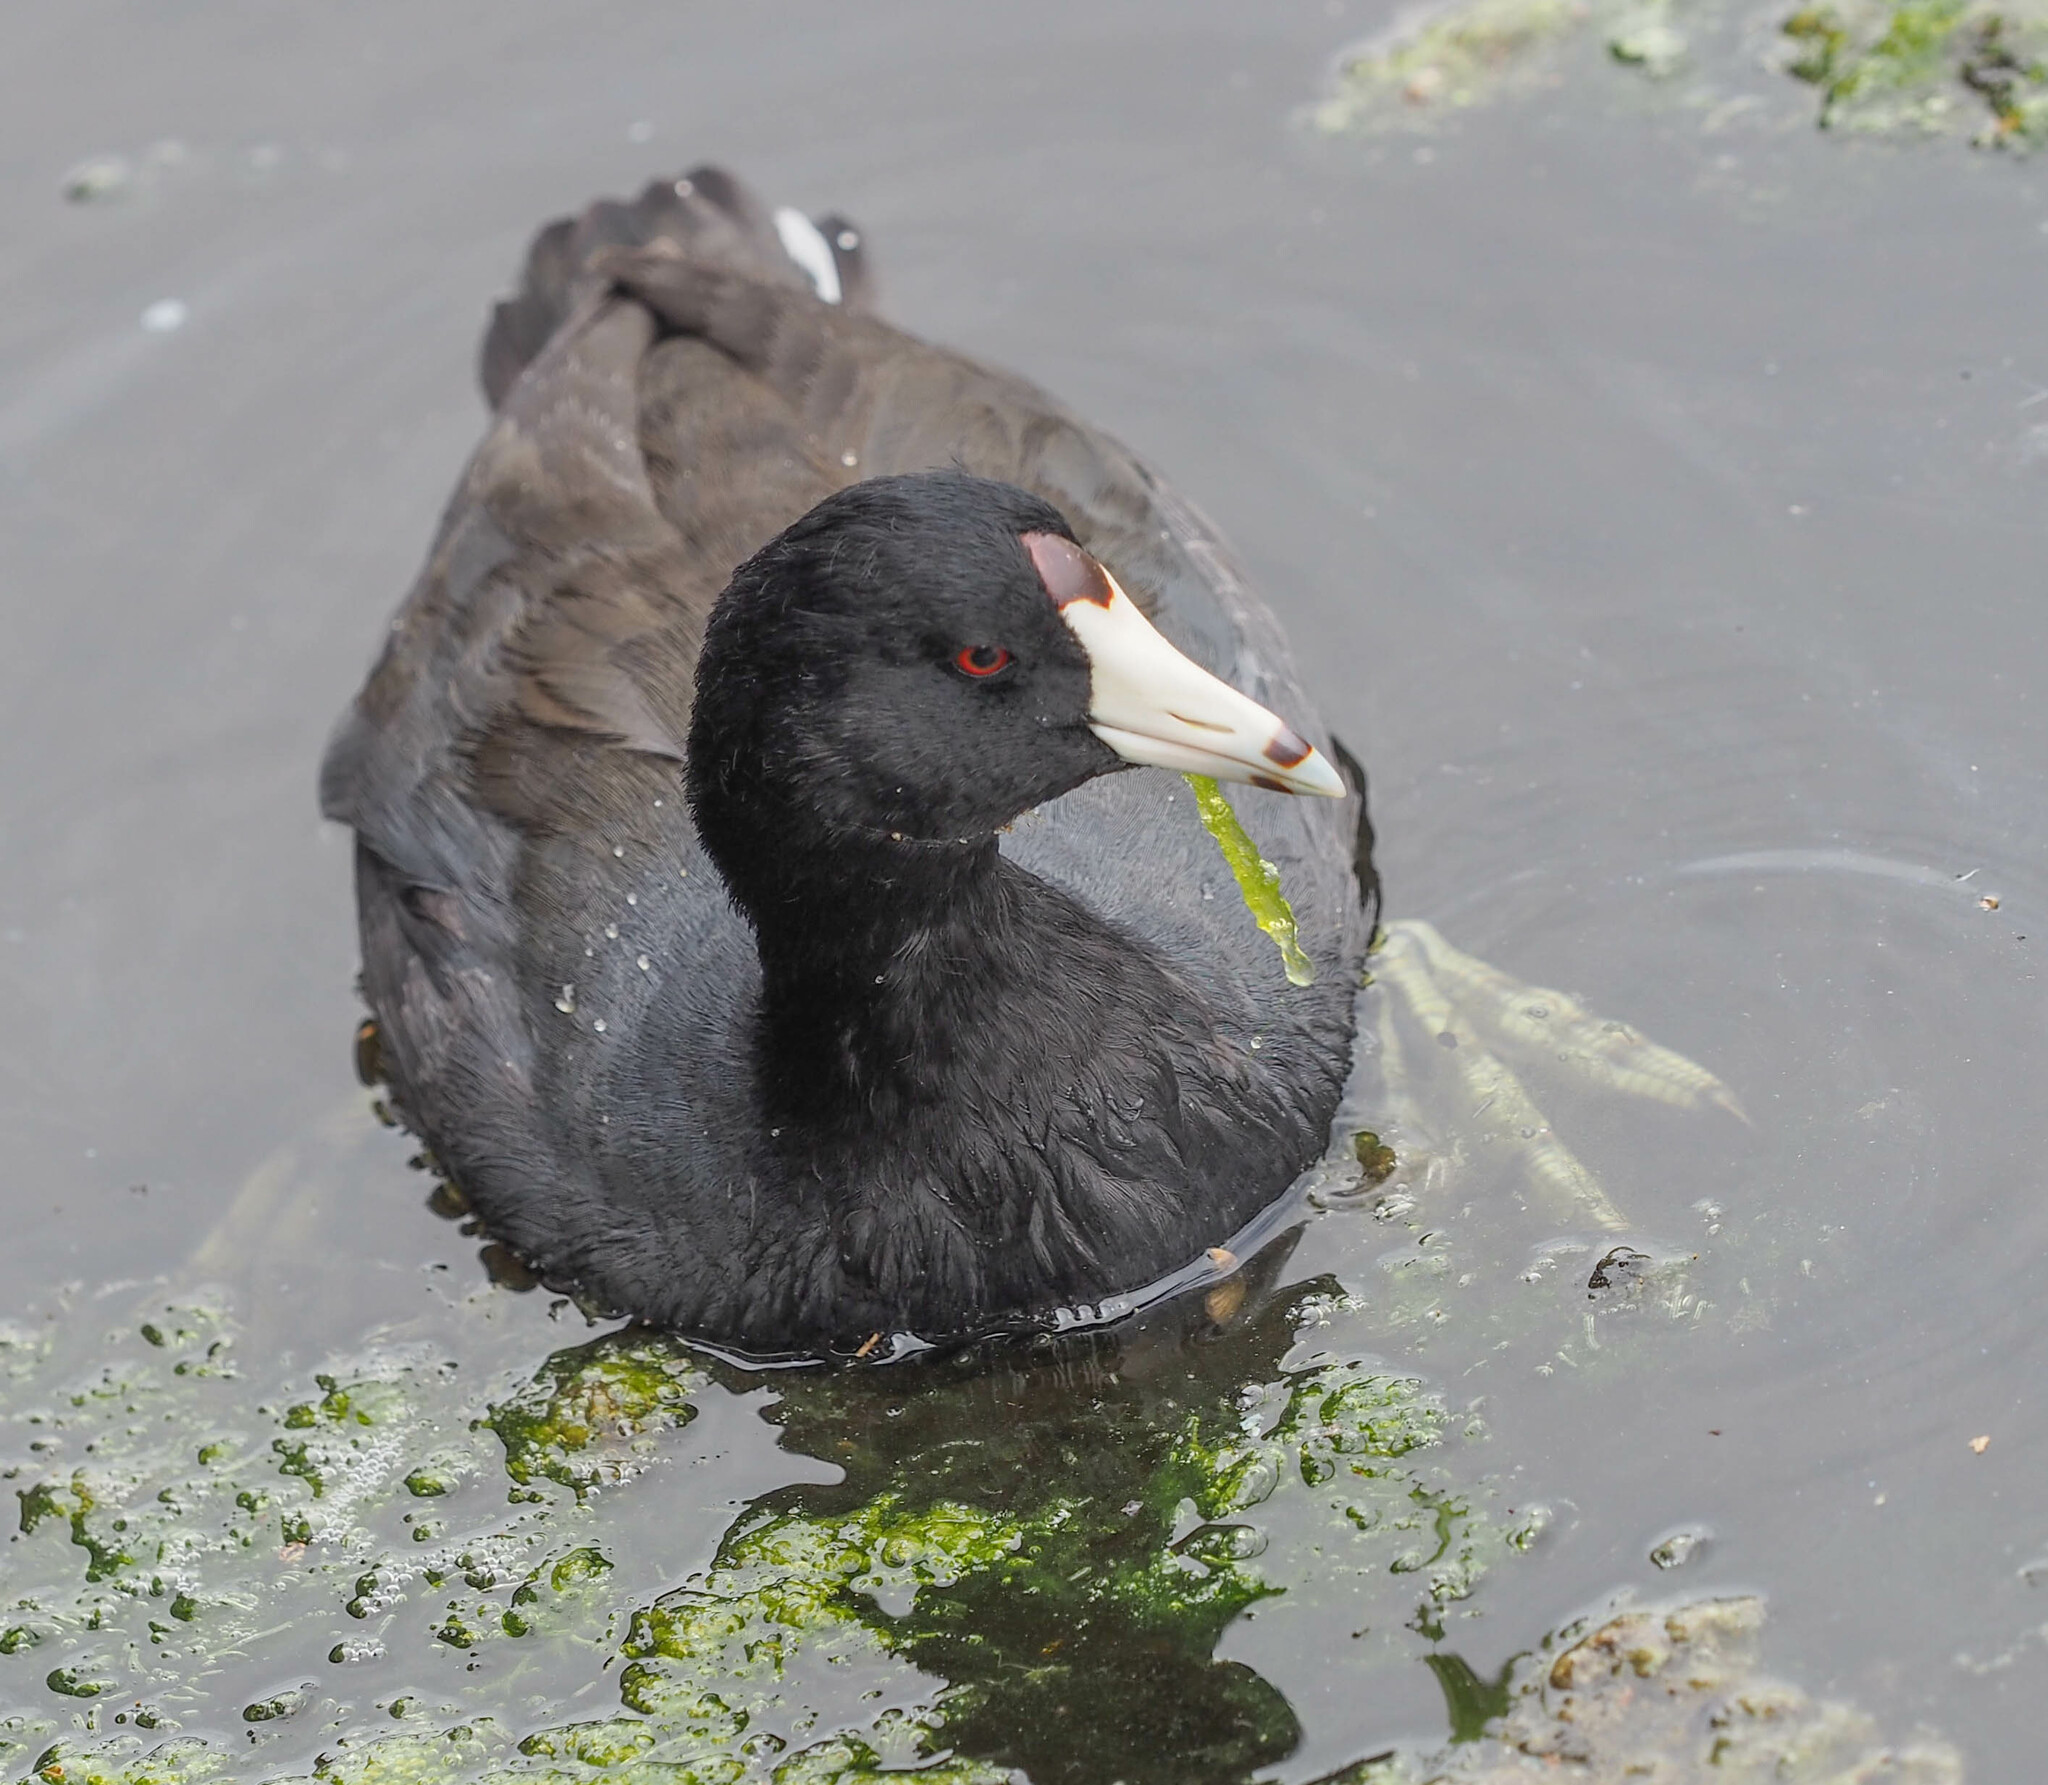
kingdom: Animalia
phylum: Chordata
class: Aves
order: Gruiformes
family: Rallidae
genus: Fulica
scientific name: Fulica americana
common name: American coot
